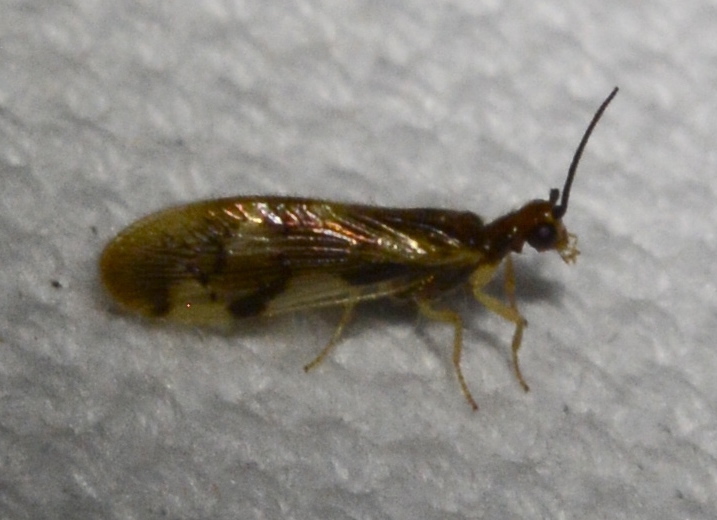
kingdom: Animalia
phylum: Arthropoda
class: Insecta
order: Neuroptera
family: Sisyridae
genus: Climacia
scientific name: Climacia areolaris
